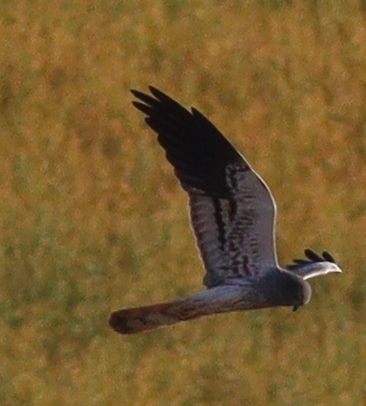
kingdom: Animalia
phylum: Chordata
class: Aves
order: Accipitriformes
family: Accipitridae
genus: Circus
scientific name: Circus pygargus
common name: Montagu's harrier
